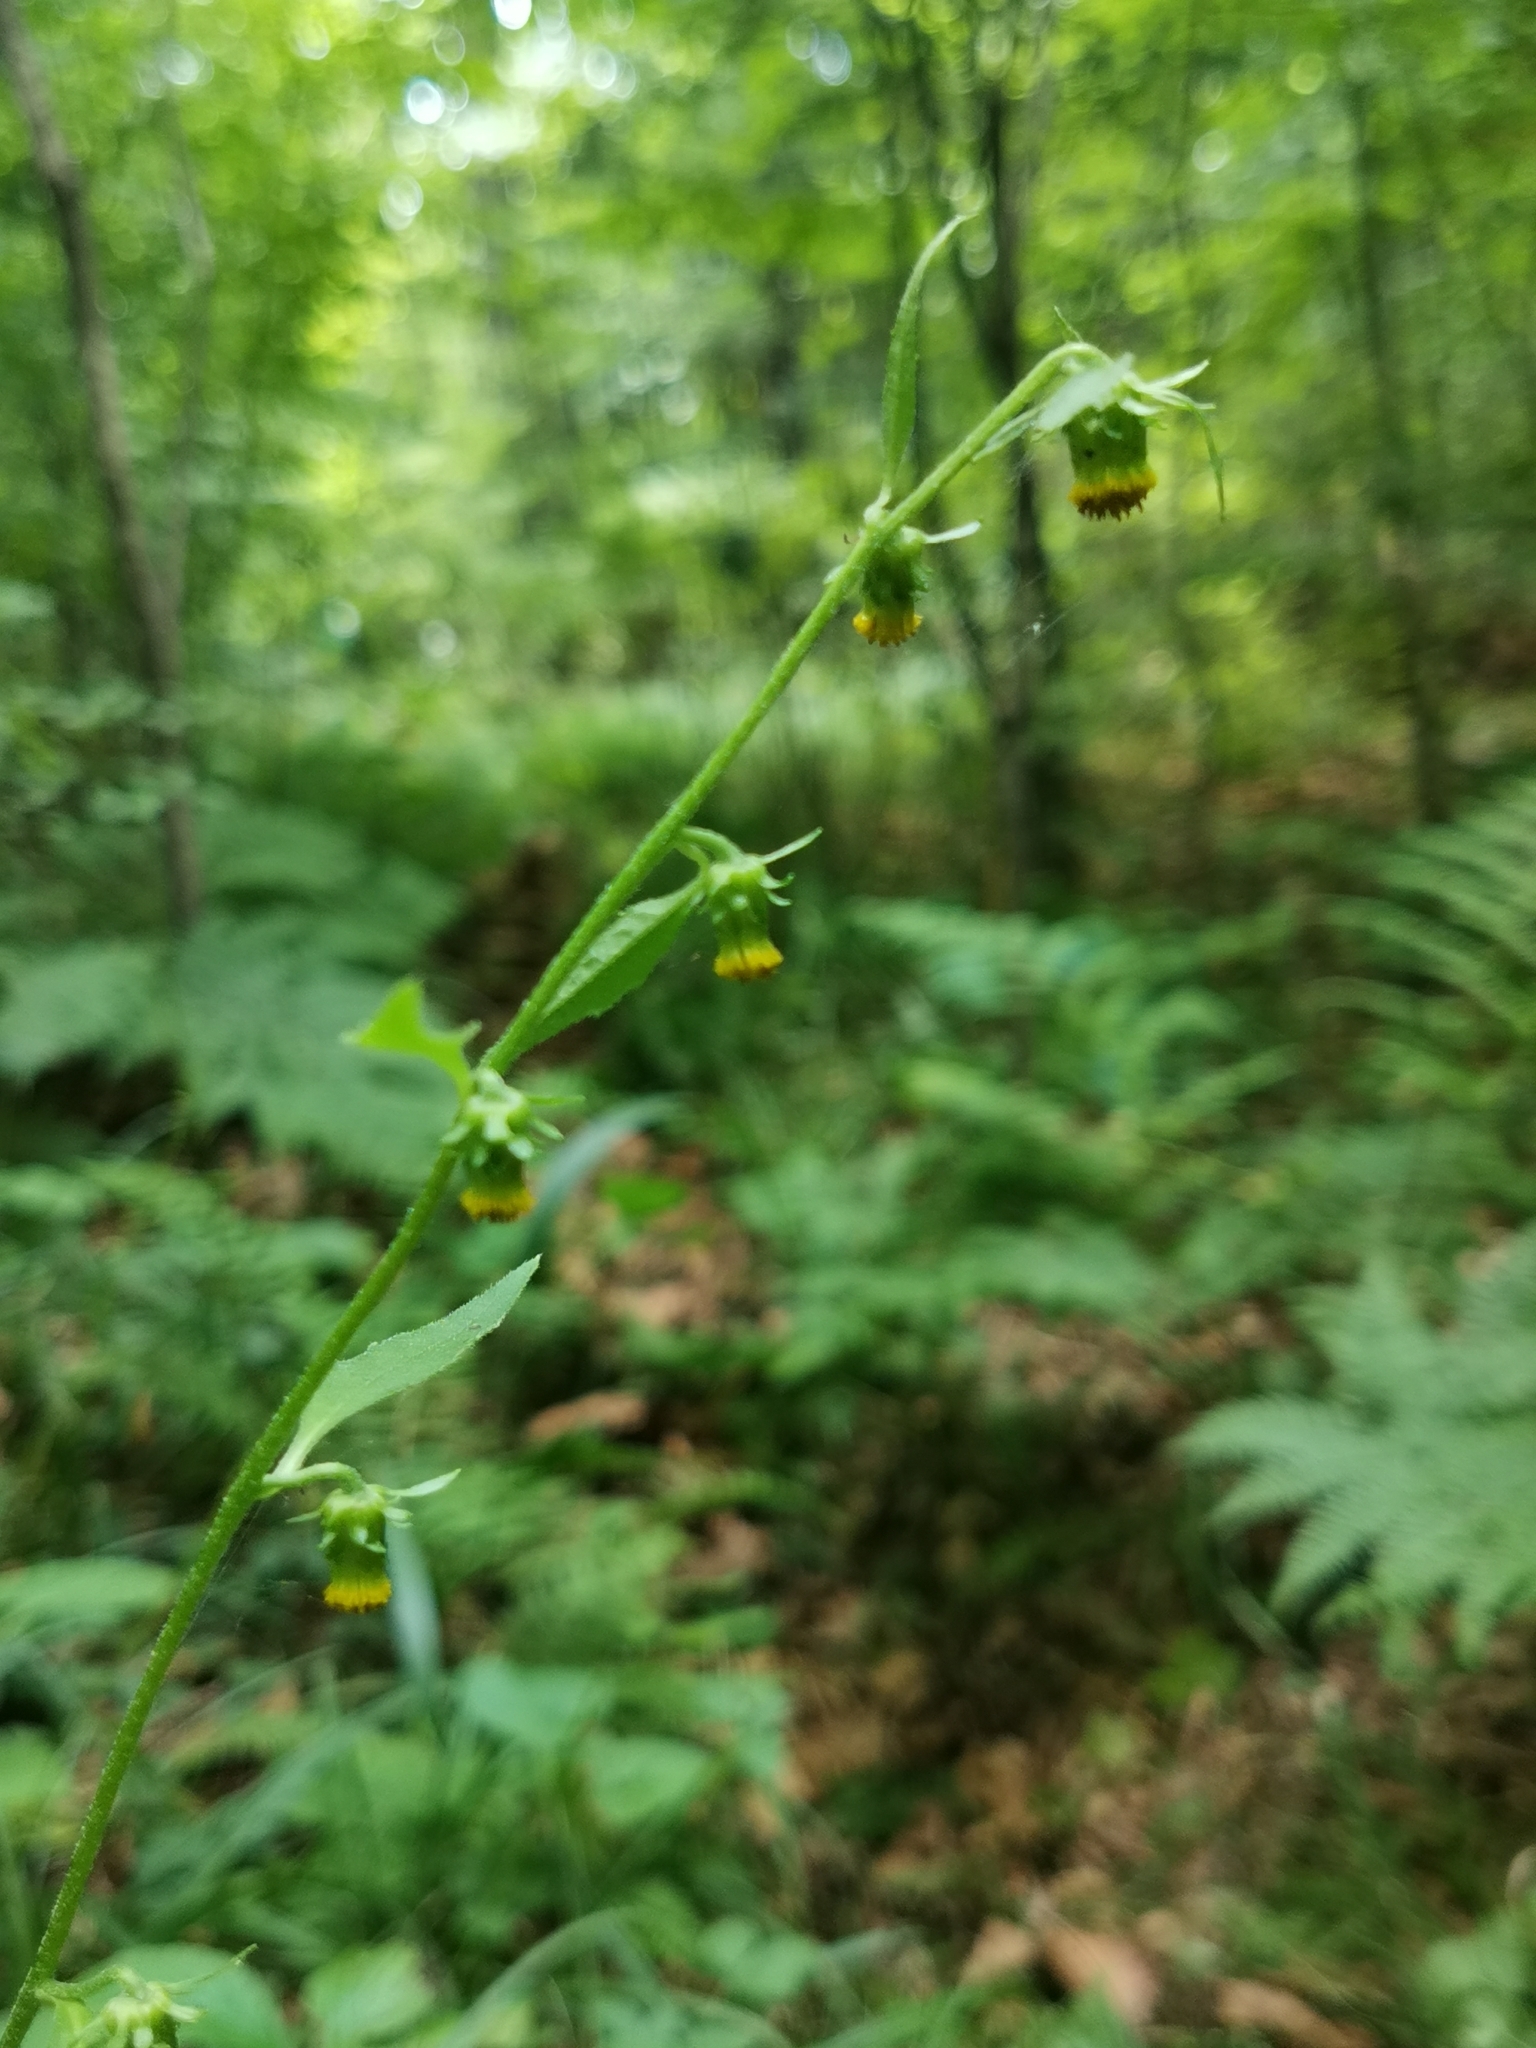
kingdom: Plantae
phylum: Tracheophyta
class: Magnoliopsida
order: Asterales
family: Asteraceae
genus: Carpesium
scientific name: Carpesium triste
